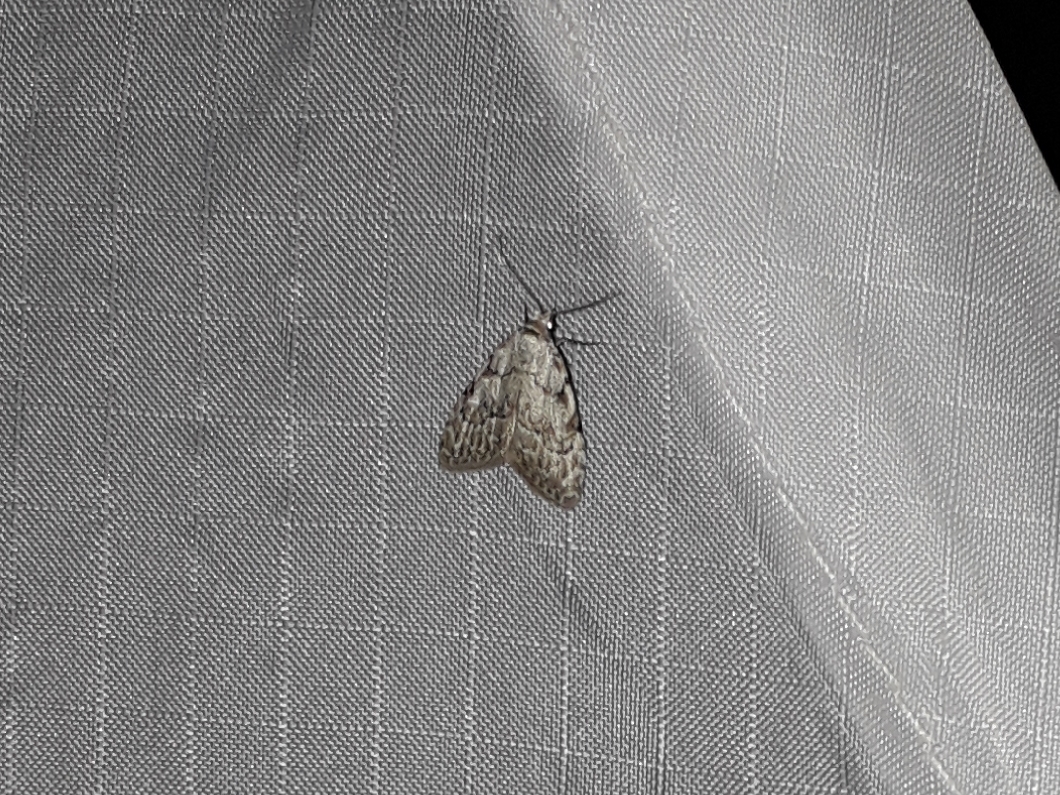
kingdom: Animalia
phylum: Arthropoda
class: Insecta
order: Lepidoptera
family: Nolidae
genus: Nola
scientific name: Nola confusalis
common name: Least black arches
